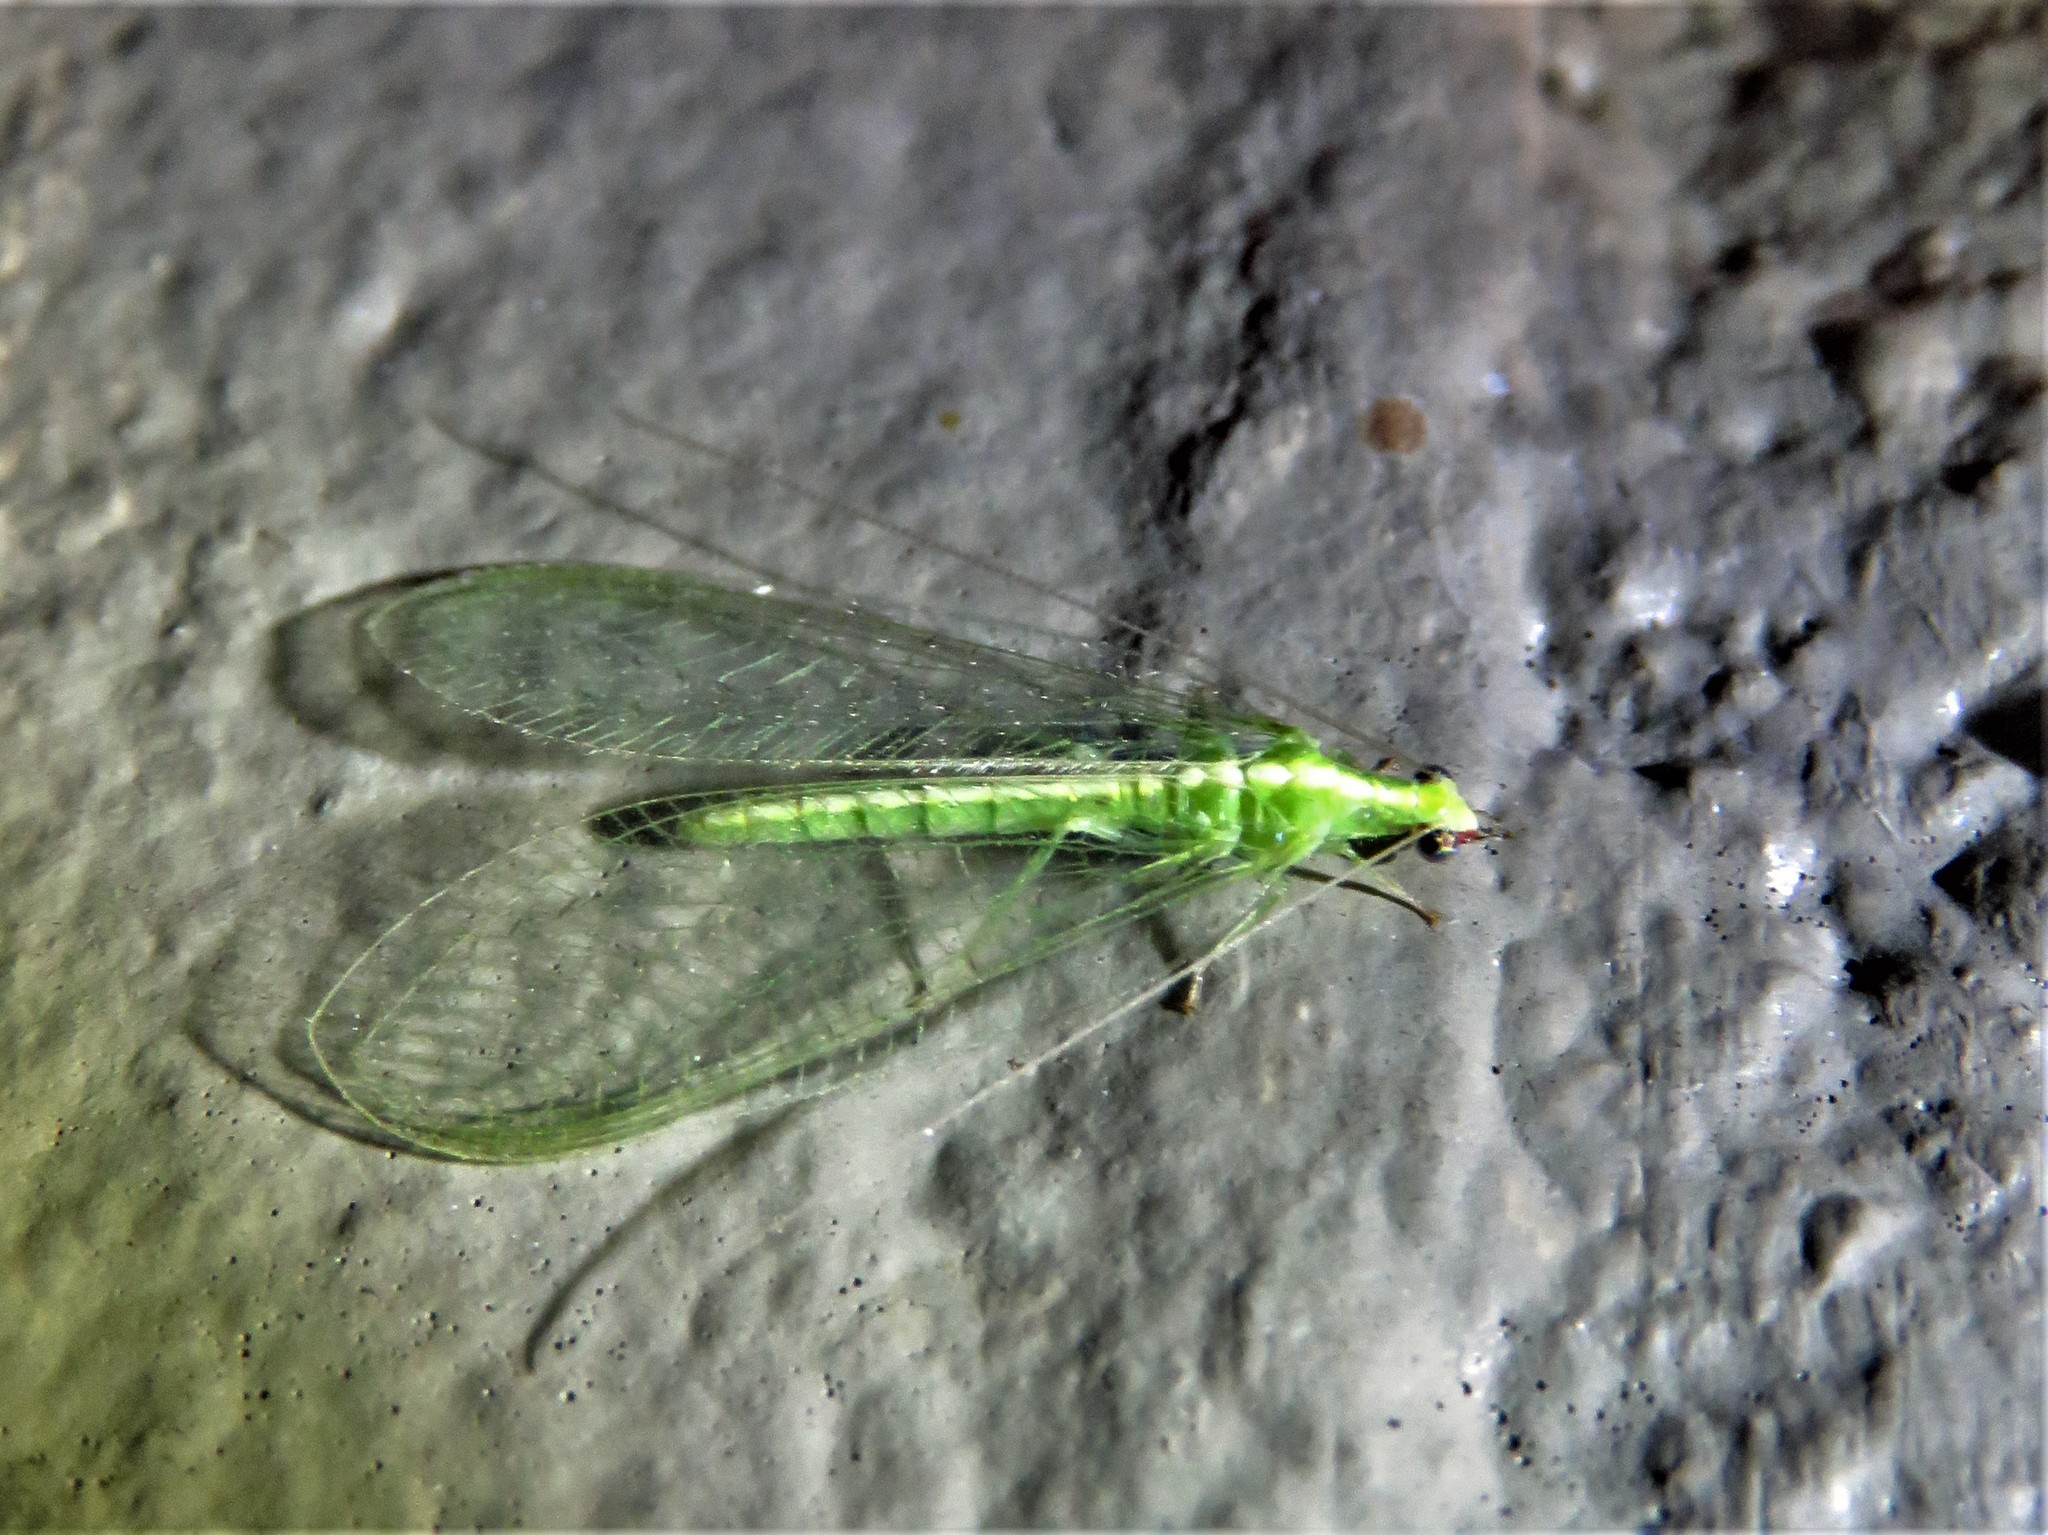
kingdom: Animalia
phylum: Arthropoda
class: Insecta
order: Neuroptera
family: Chrysopidae
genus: Chrysoperla
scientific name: Chrysoperla rufilabris
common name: Red-lipped green lacewing
